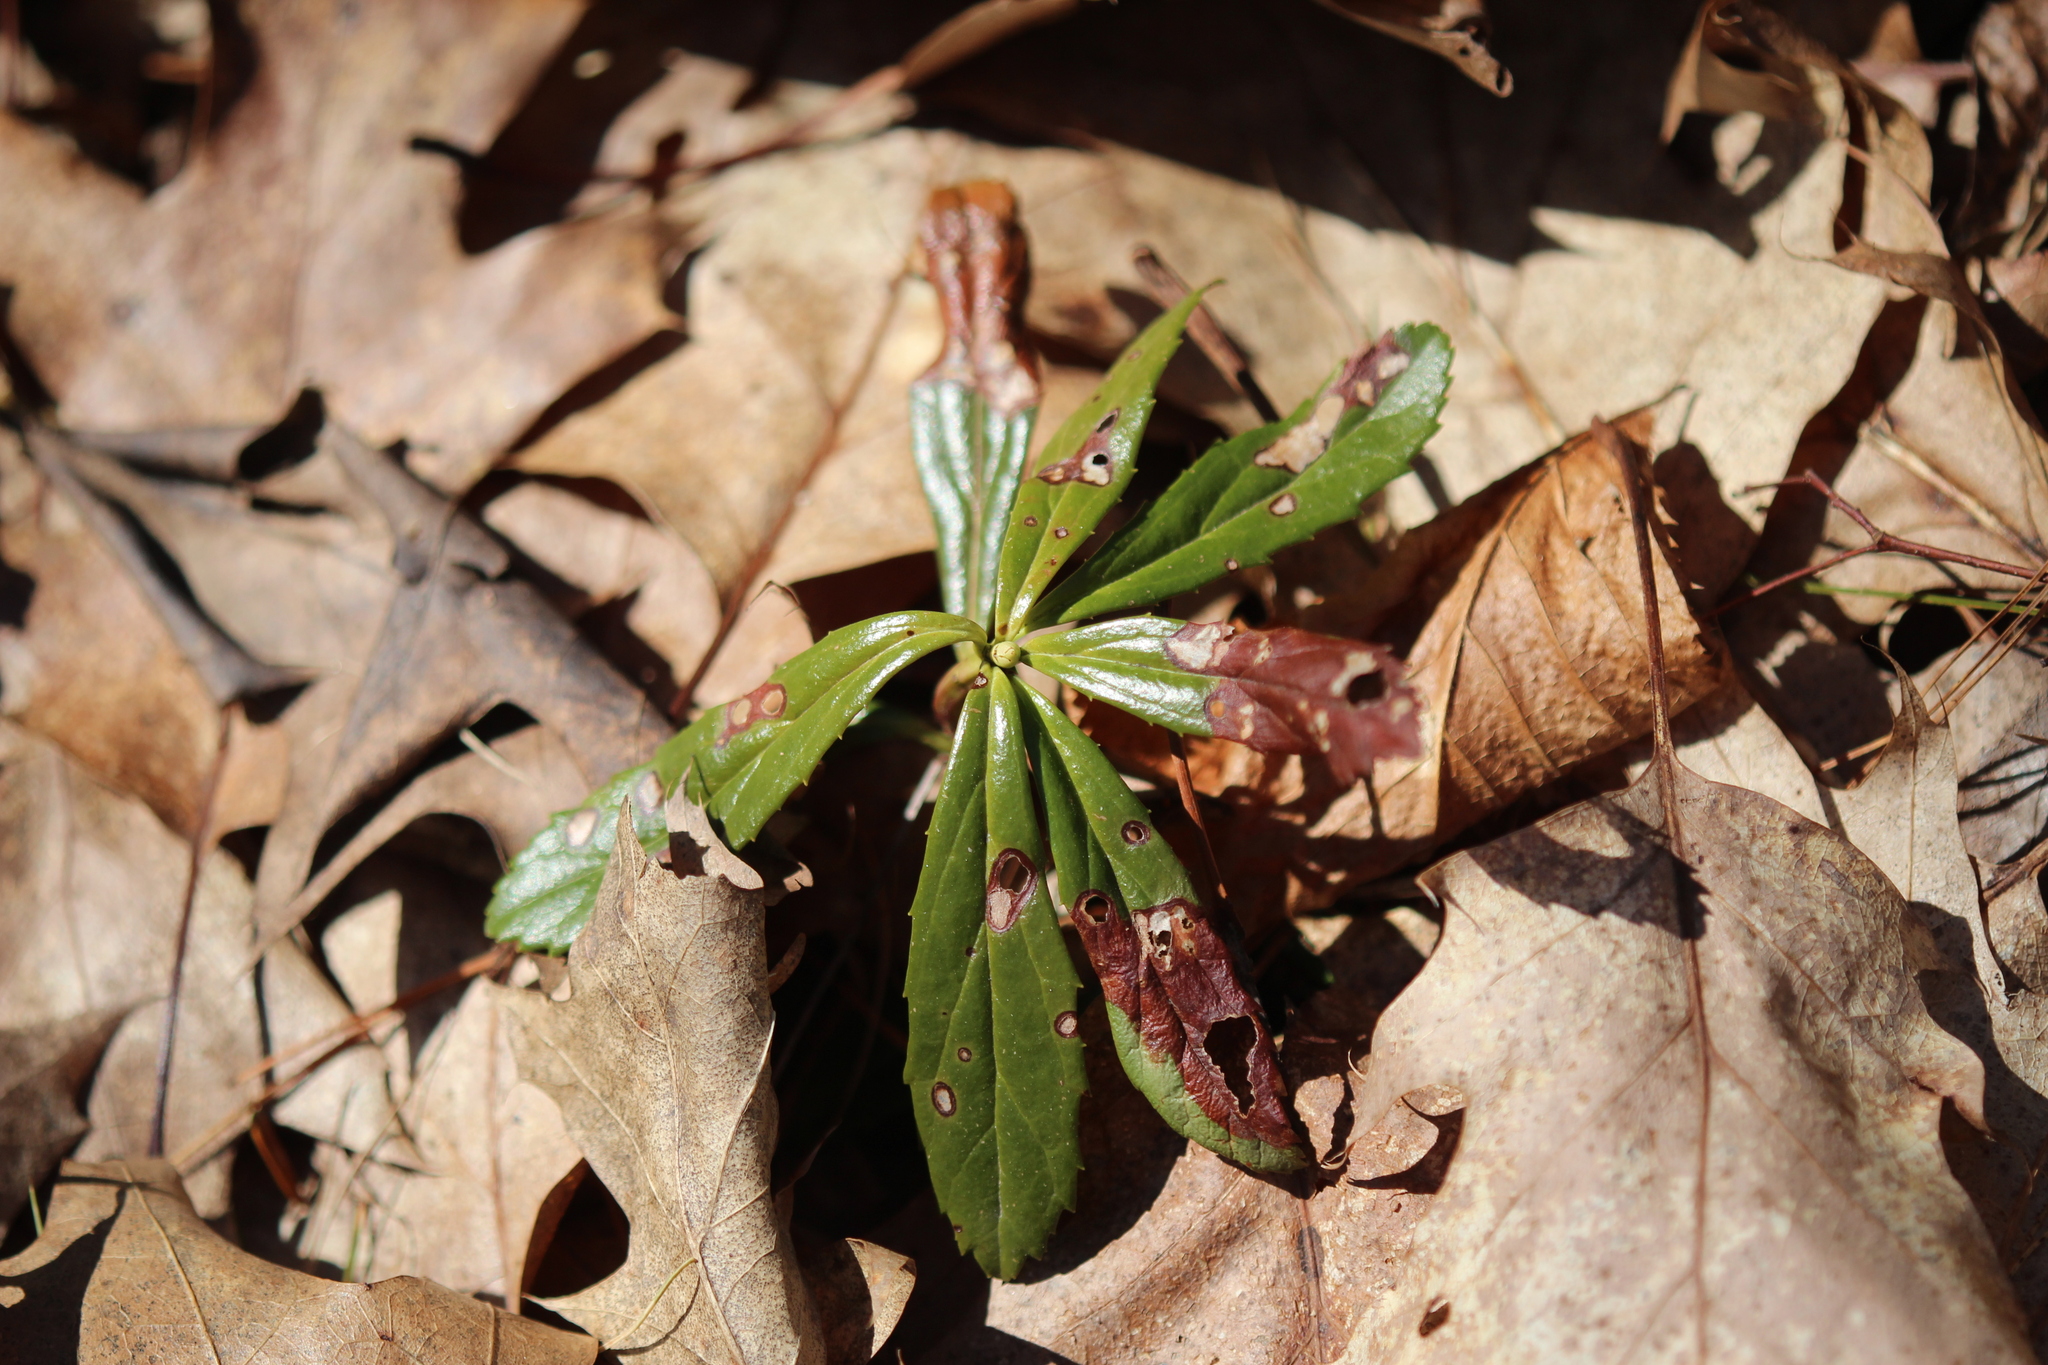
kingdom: Plantae
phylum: Tracheophyta
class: Magnoliopsida
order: Ericales
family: Ericaceae
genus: Chimaphila
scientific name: Chimaphila umbellata
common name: Pipsissewa
